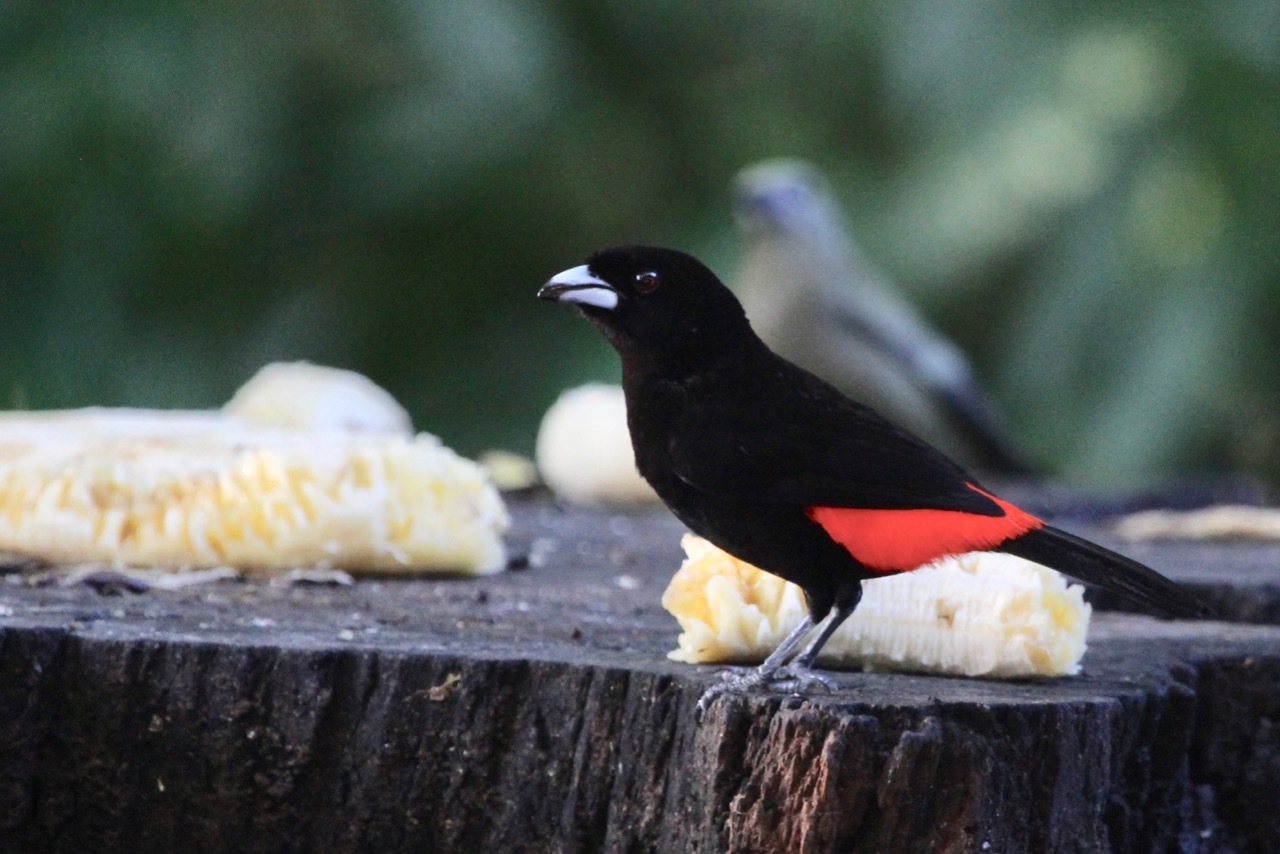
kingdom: Animalia
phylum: Chordata
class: Aves
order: Passeriformes
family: Thraupidae
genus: Ramphocelus
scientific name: Ramphocelus passerinii
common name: Passerini's tanager
